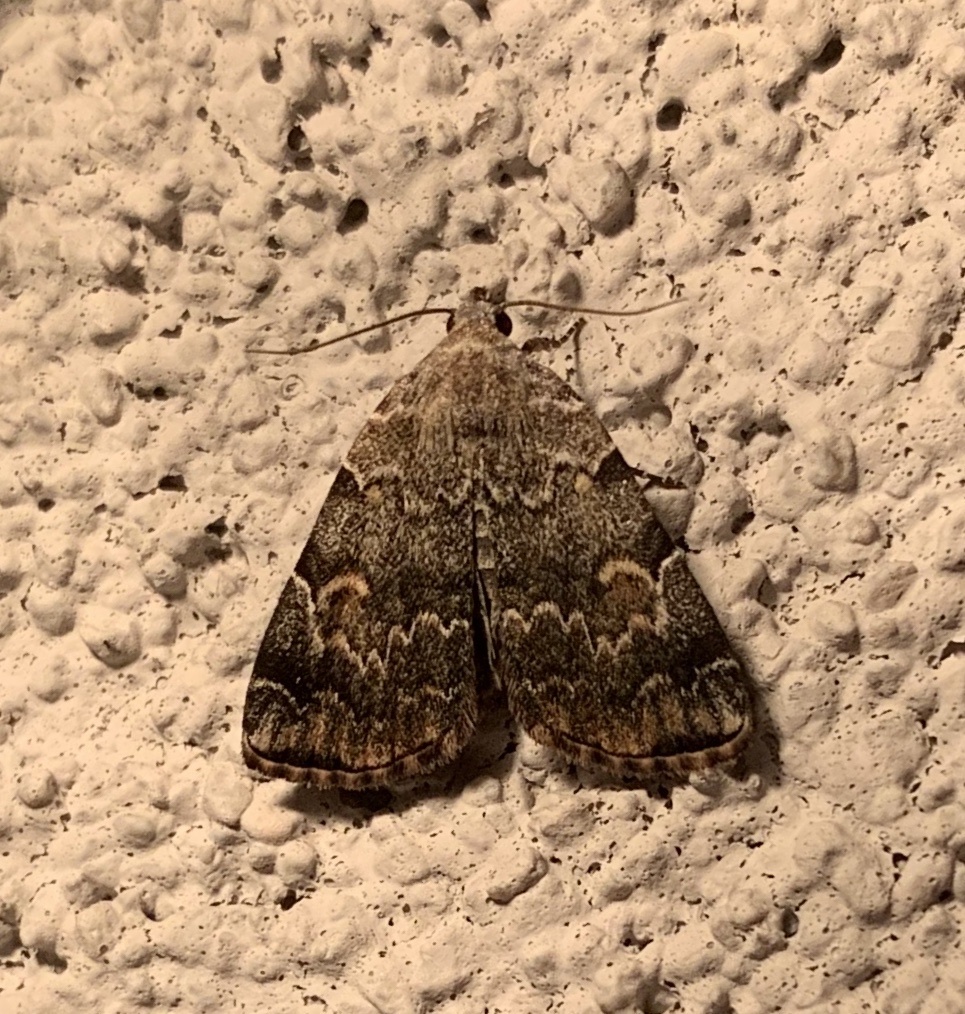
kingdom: Animalia
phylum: Arthropoda
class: Insecta
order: Lepidoptera
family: Erebidae
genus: Idia
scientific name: Idia americalis
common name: American idia moth
